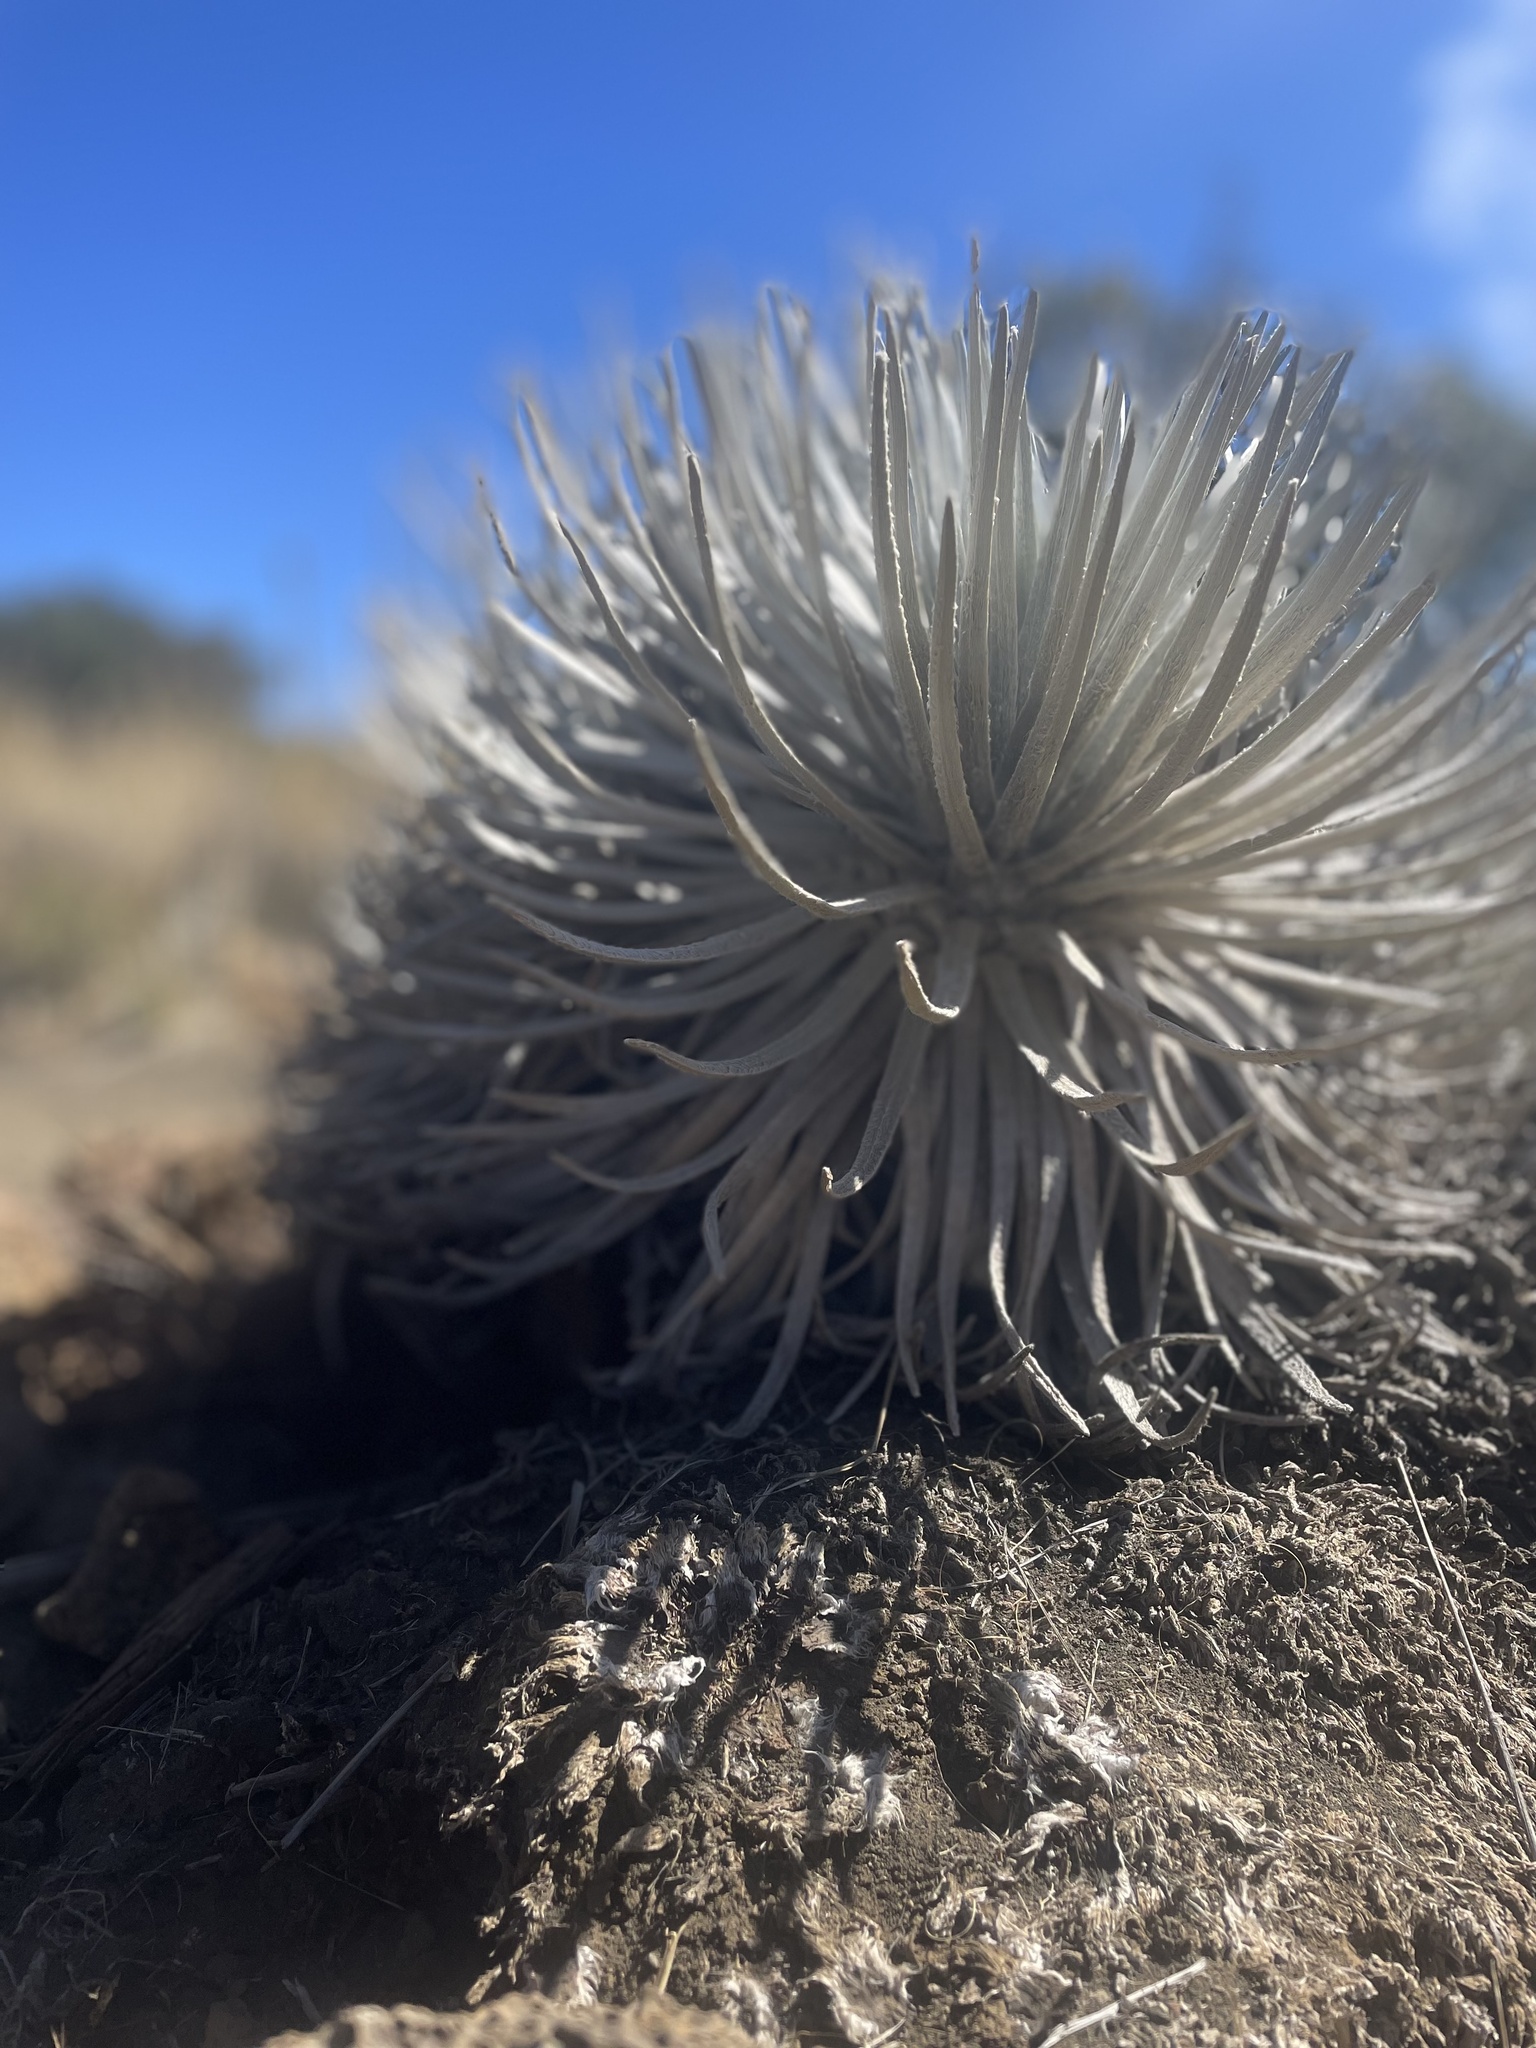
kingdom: Plantae
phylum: Tracheophyta
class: Magnoliopsida
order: Asterales
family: Asteraceae
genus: Argyroxiphium
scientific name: Argyroxiphium sandwicense
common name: Silversword
